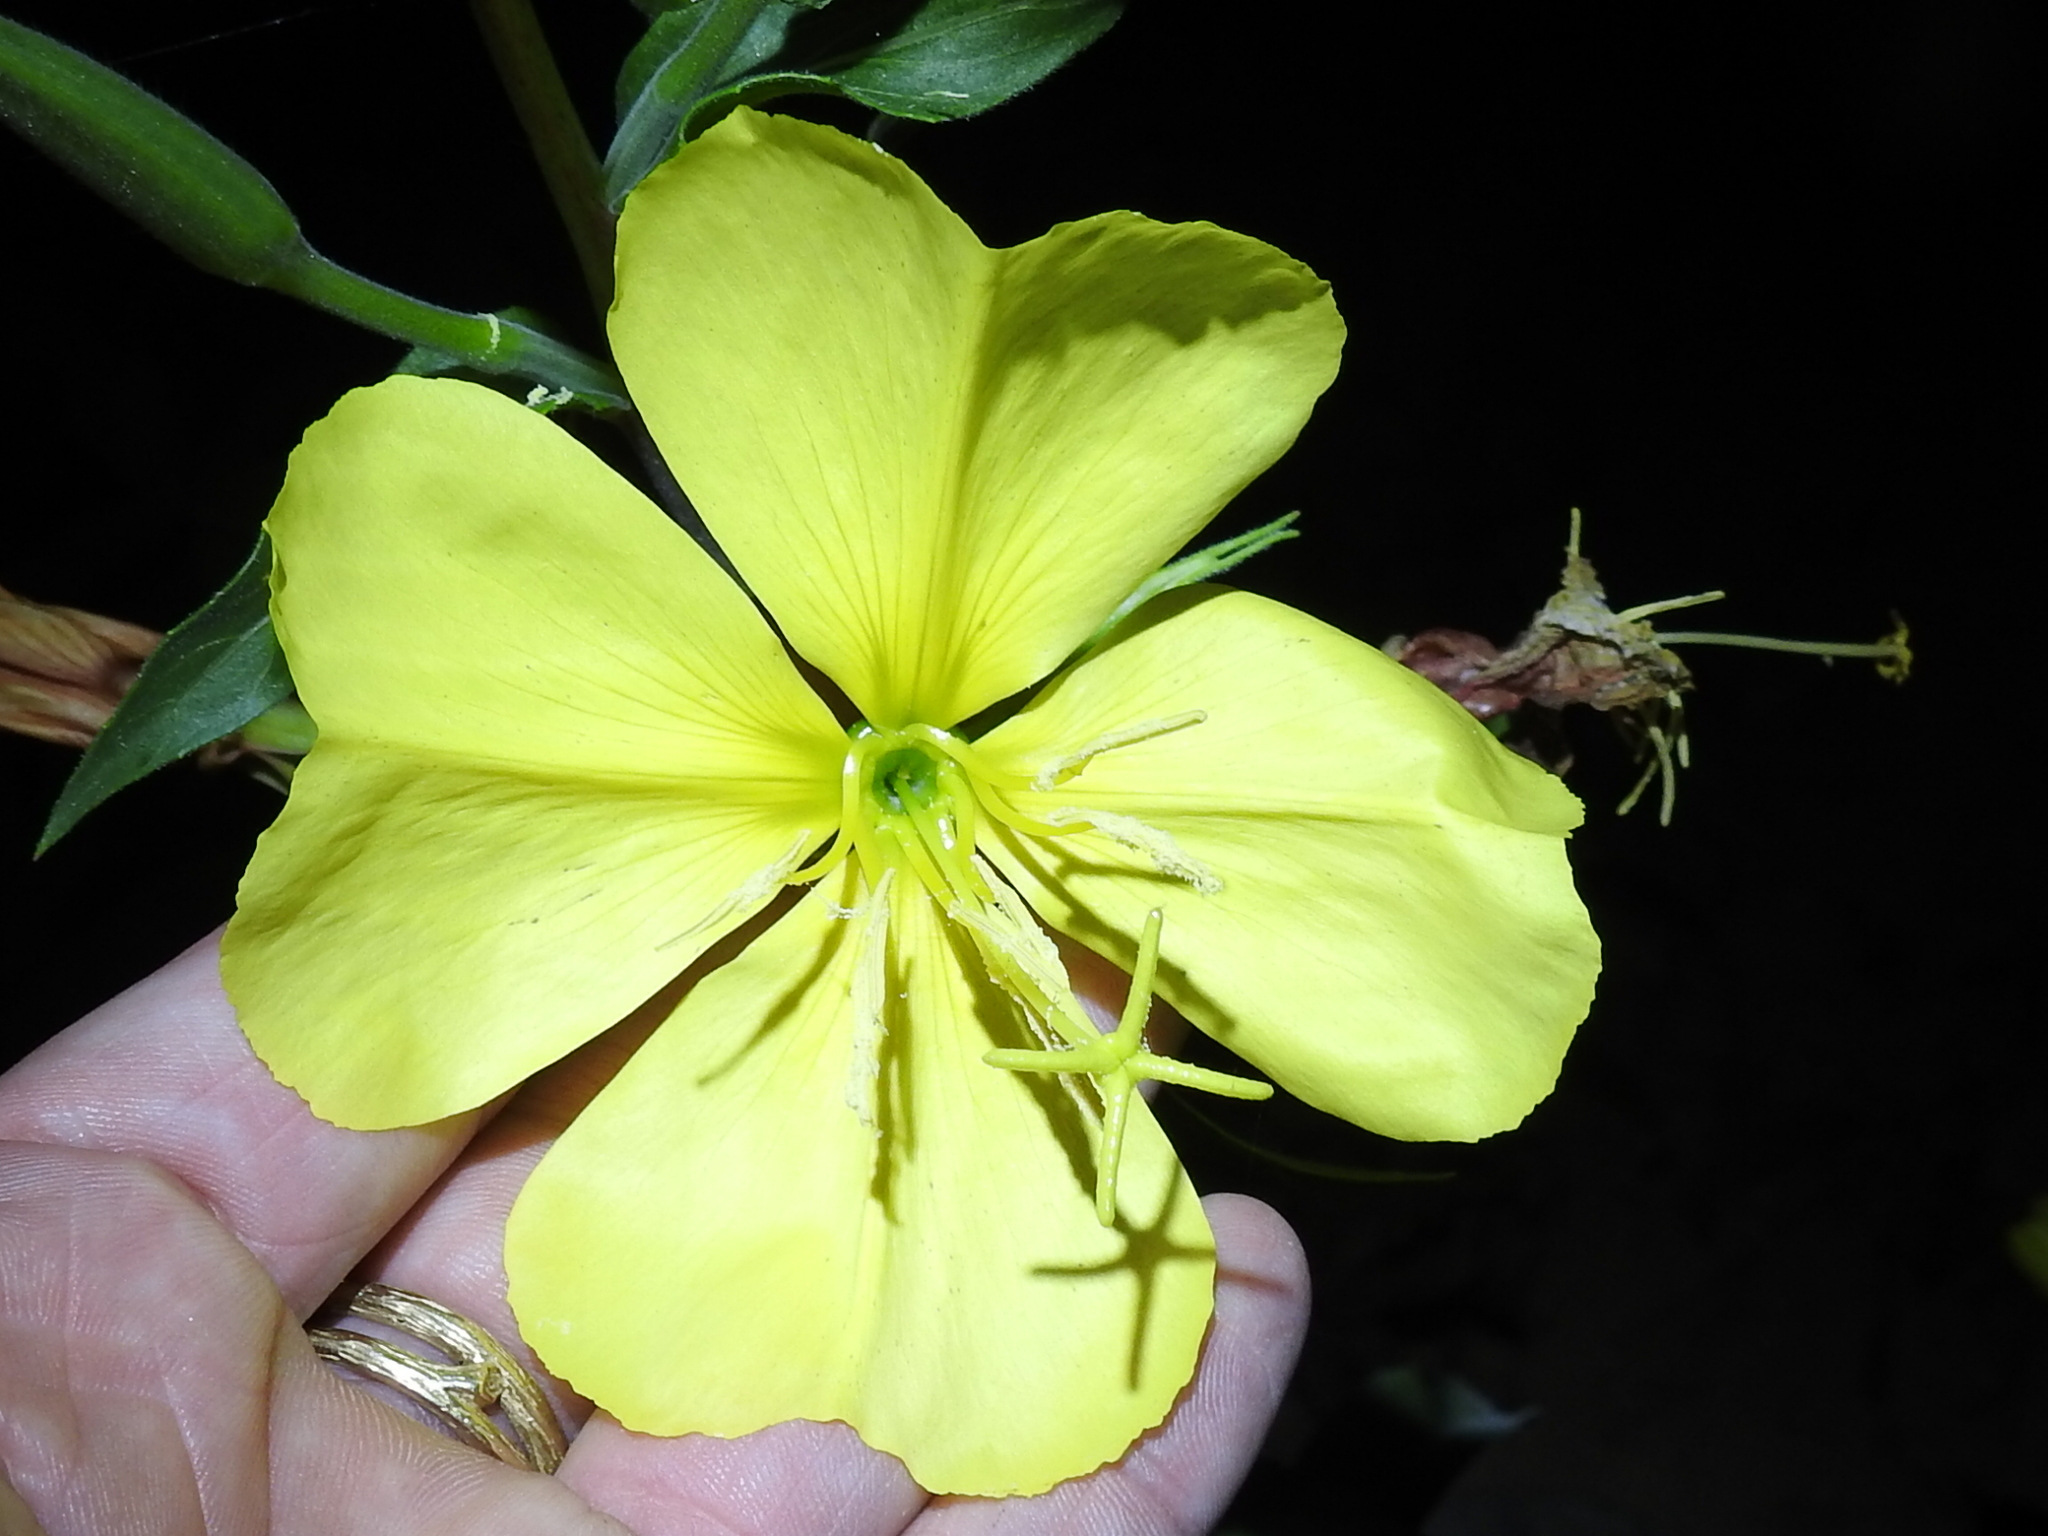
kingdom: Plantae
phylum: Tracheophyta
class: Magnoliopsida
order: Myrtales
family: Onagraceae
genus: Oenothera
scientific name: Oenothera elata
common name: Hooker's evening-primrose
